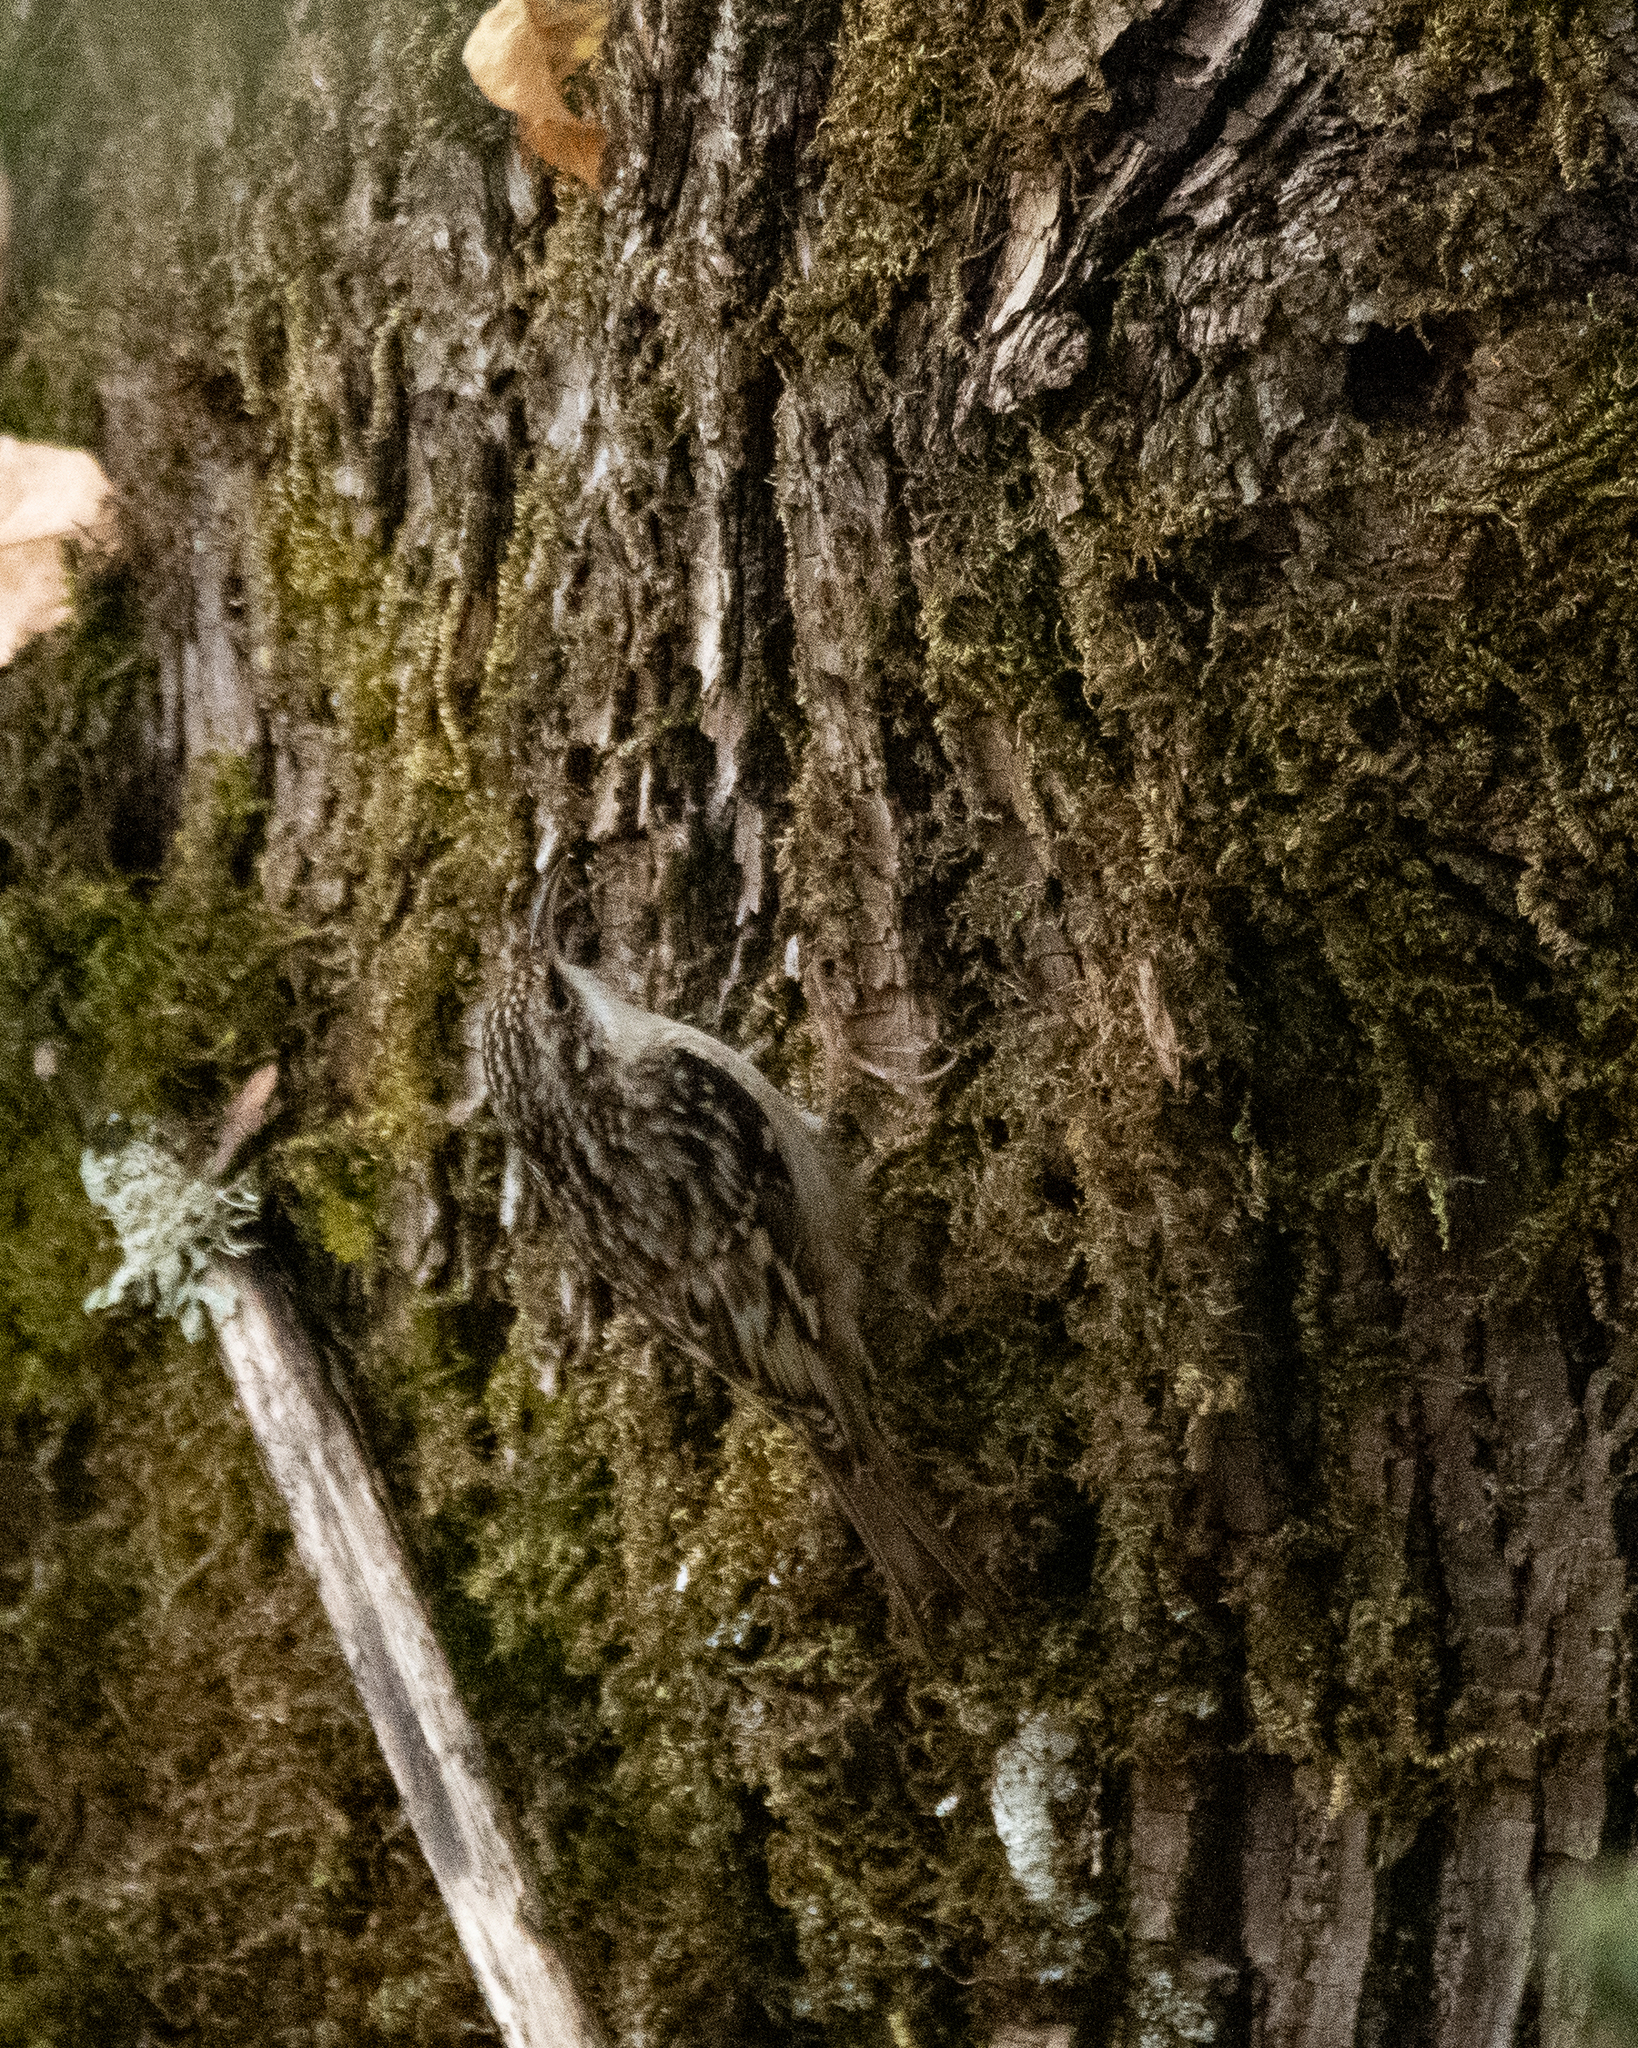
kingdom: Animalia
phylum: Chordata
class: Aves
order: Passeriformes
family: Certhiidae
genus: Certhia
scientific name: Certhia americana
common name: Brown creeper
